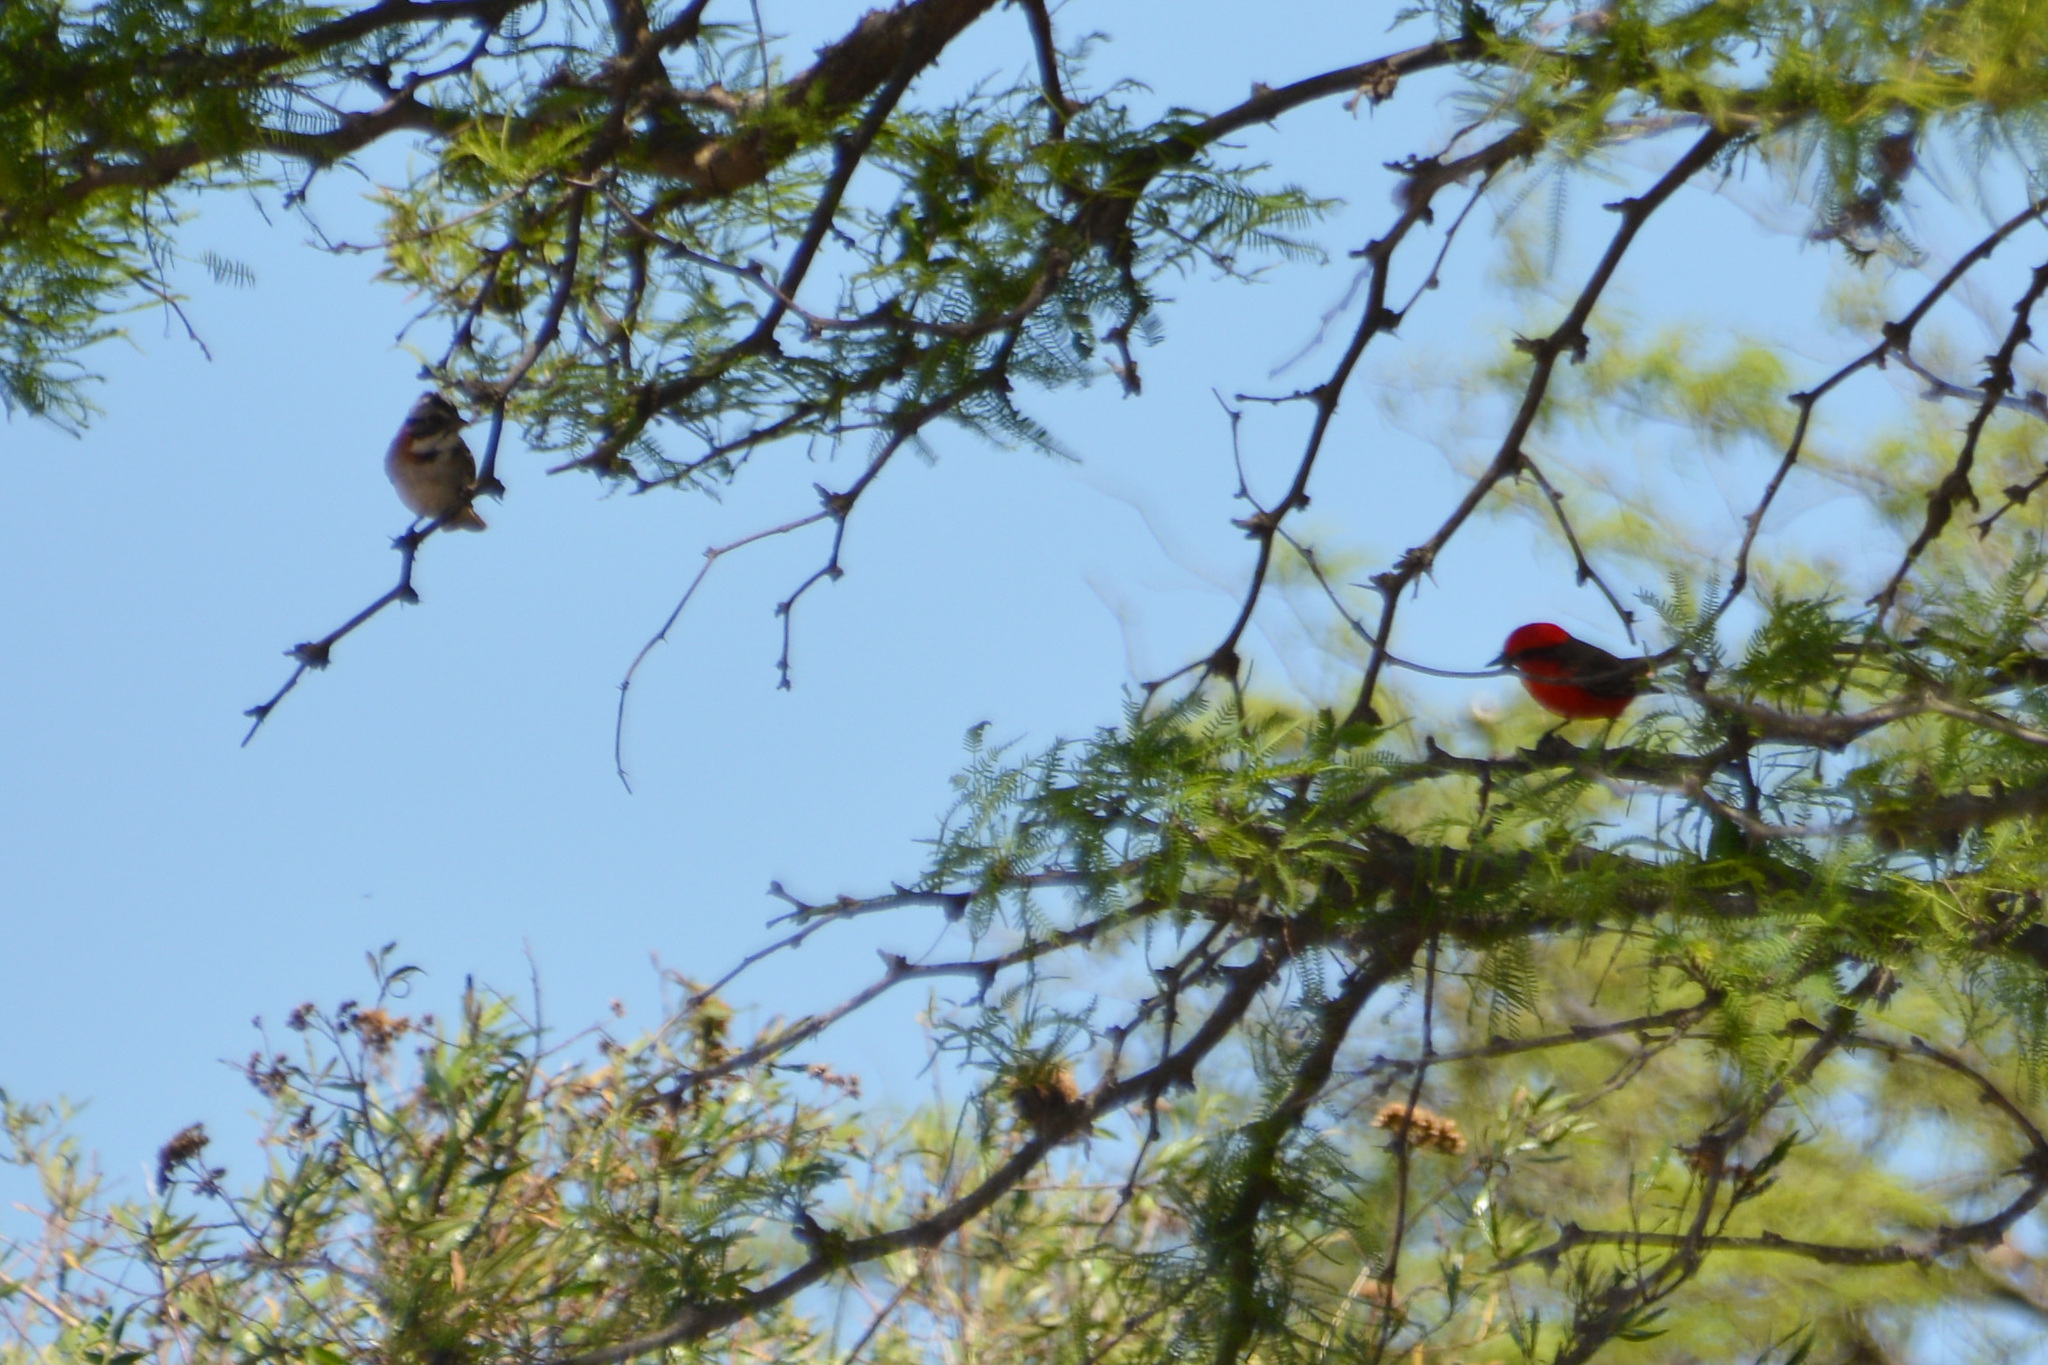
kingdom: Animalia
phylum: Chordata
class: Aves
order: Passeriformes
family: Passerellidae
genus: Zonotrichia
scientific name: Zonotrichia capensis
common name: Rufous-collared sparrow
